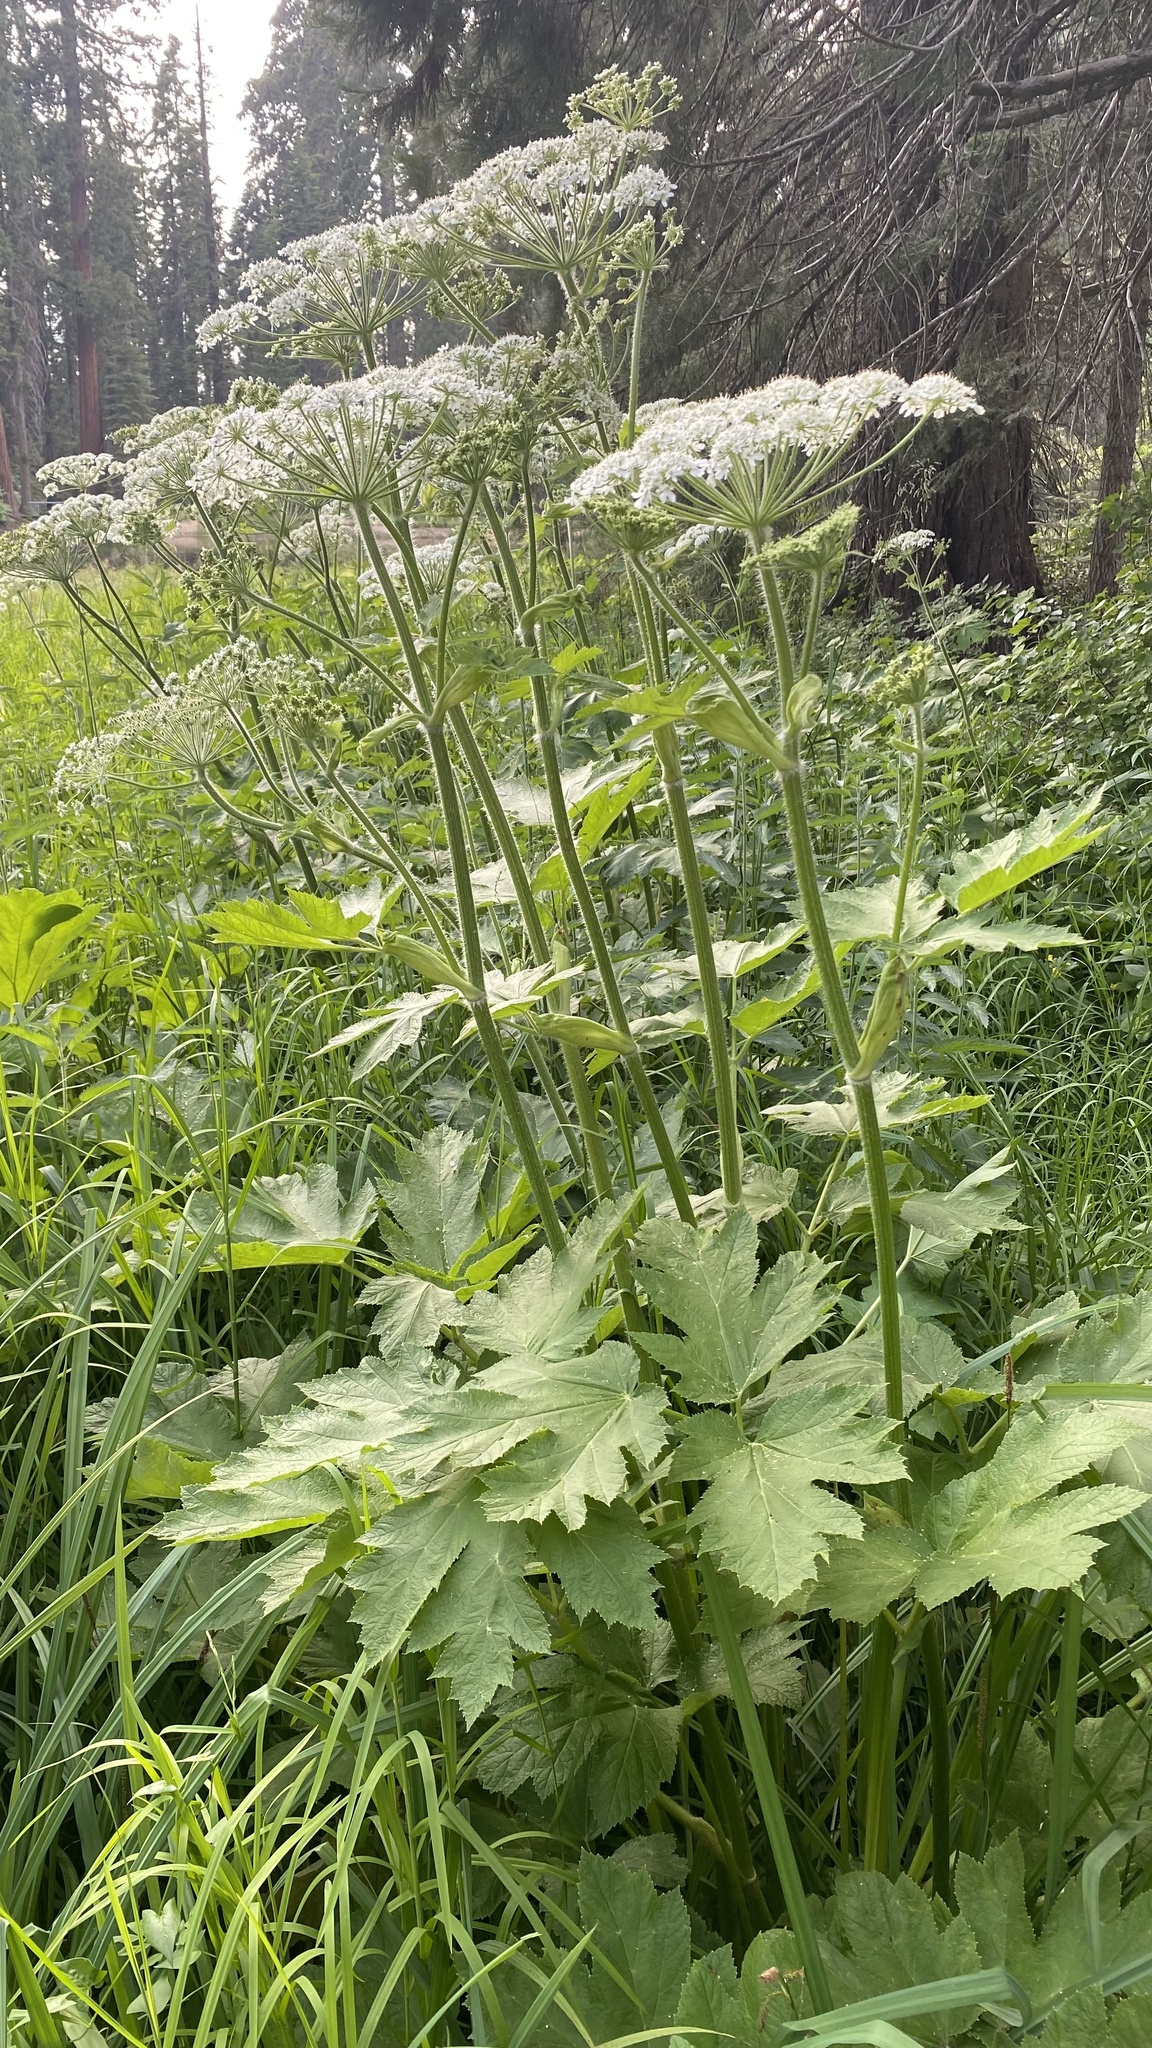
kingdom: Plantae
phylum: Tracheophyta
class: Magnoliopsida
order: Apiales
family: Apiaceae
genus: Heracleum
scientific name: Heracleum maximum
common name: American cow parsnip
